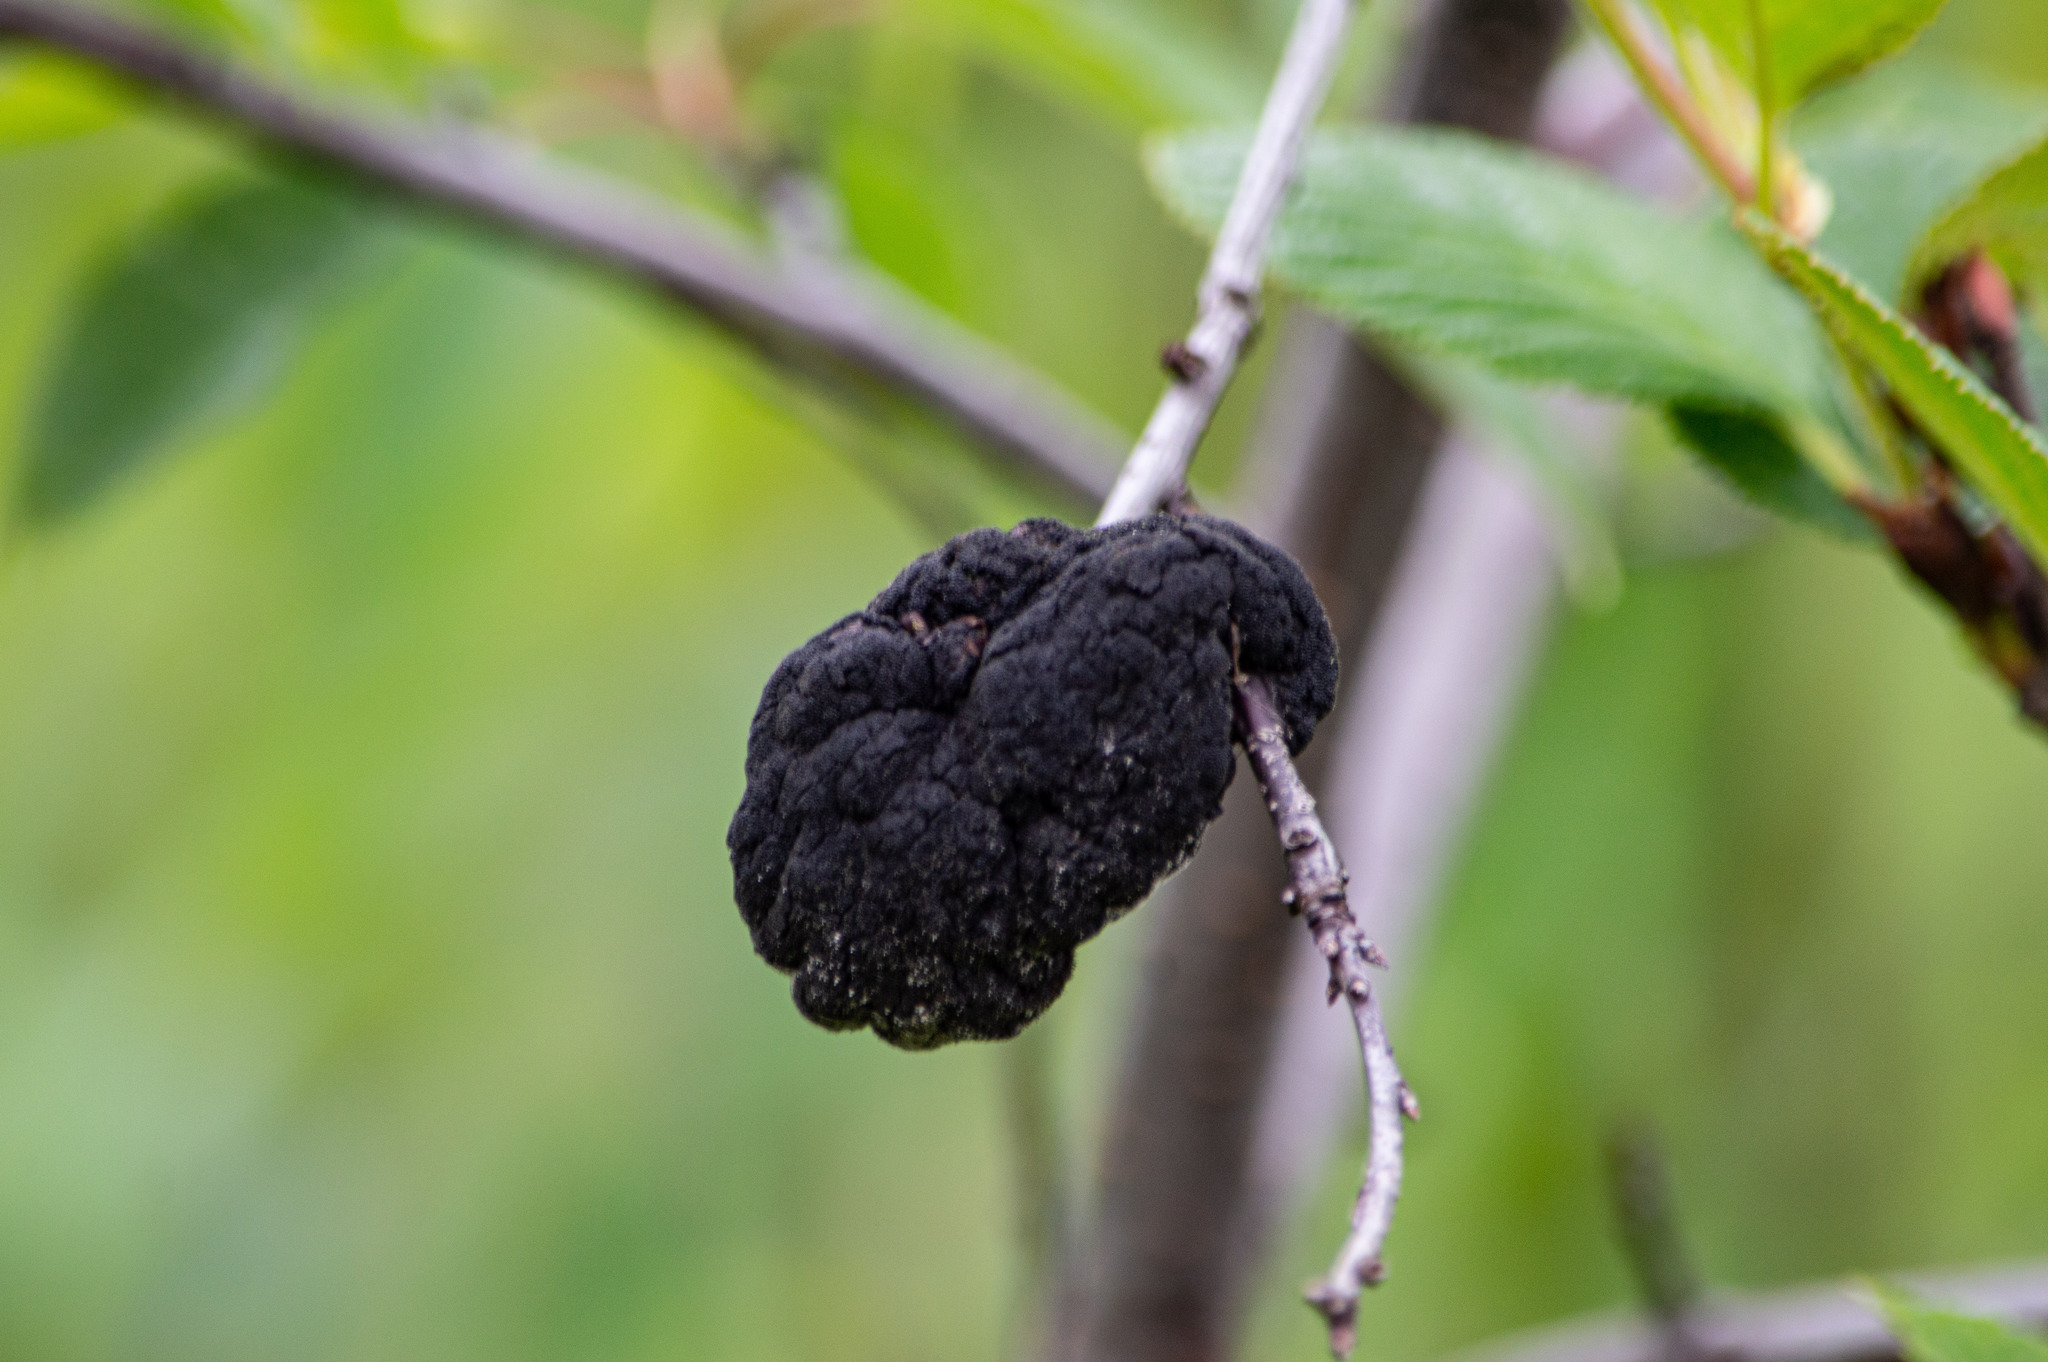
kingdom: Fungi
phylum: Ascomycota
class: Dothideomycetes
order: Venturiales
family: Venturiaceae
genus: Apiosporina
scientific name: Apiosporina morbosa
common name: Black knot
